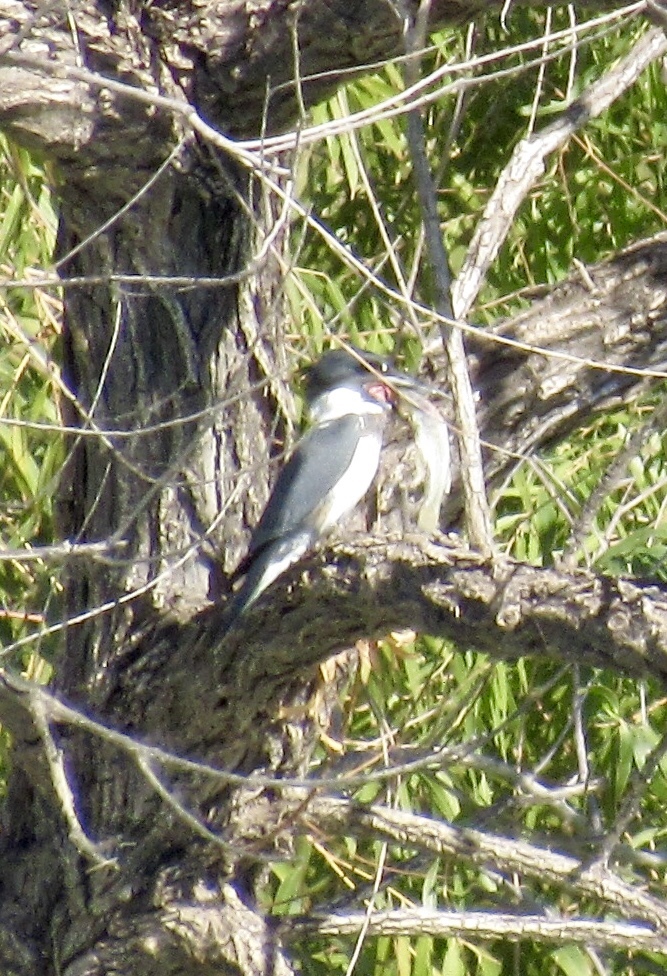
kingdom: Animalia
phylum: Chordata
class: Aves
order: Coraciiformes
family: Alcedinidae
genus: Megaceryle
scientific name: Megaceryle alcyon
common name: Belted kingfisher
